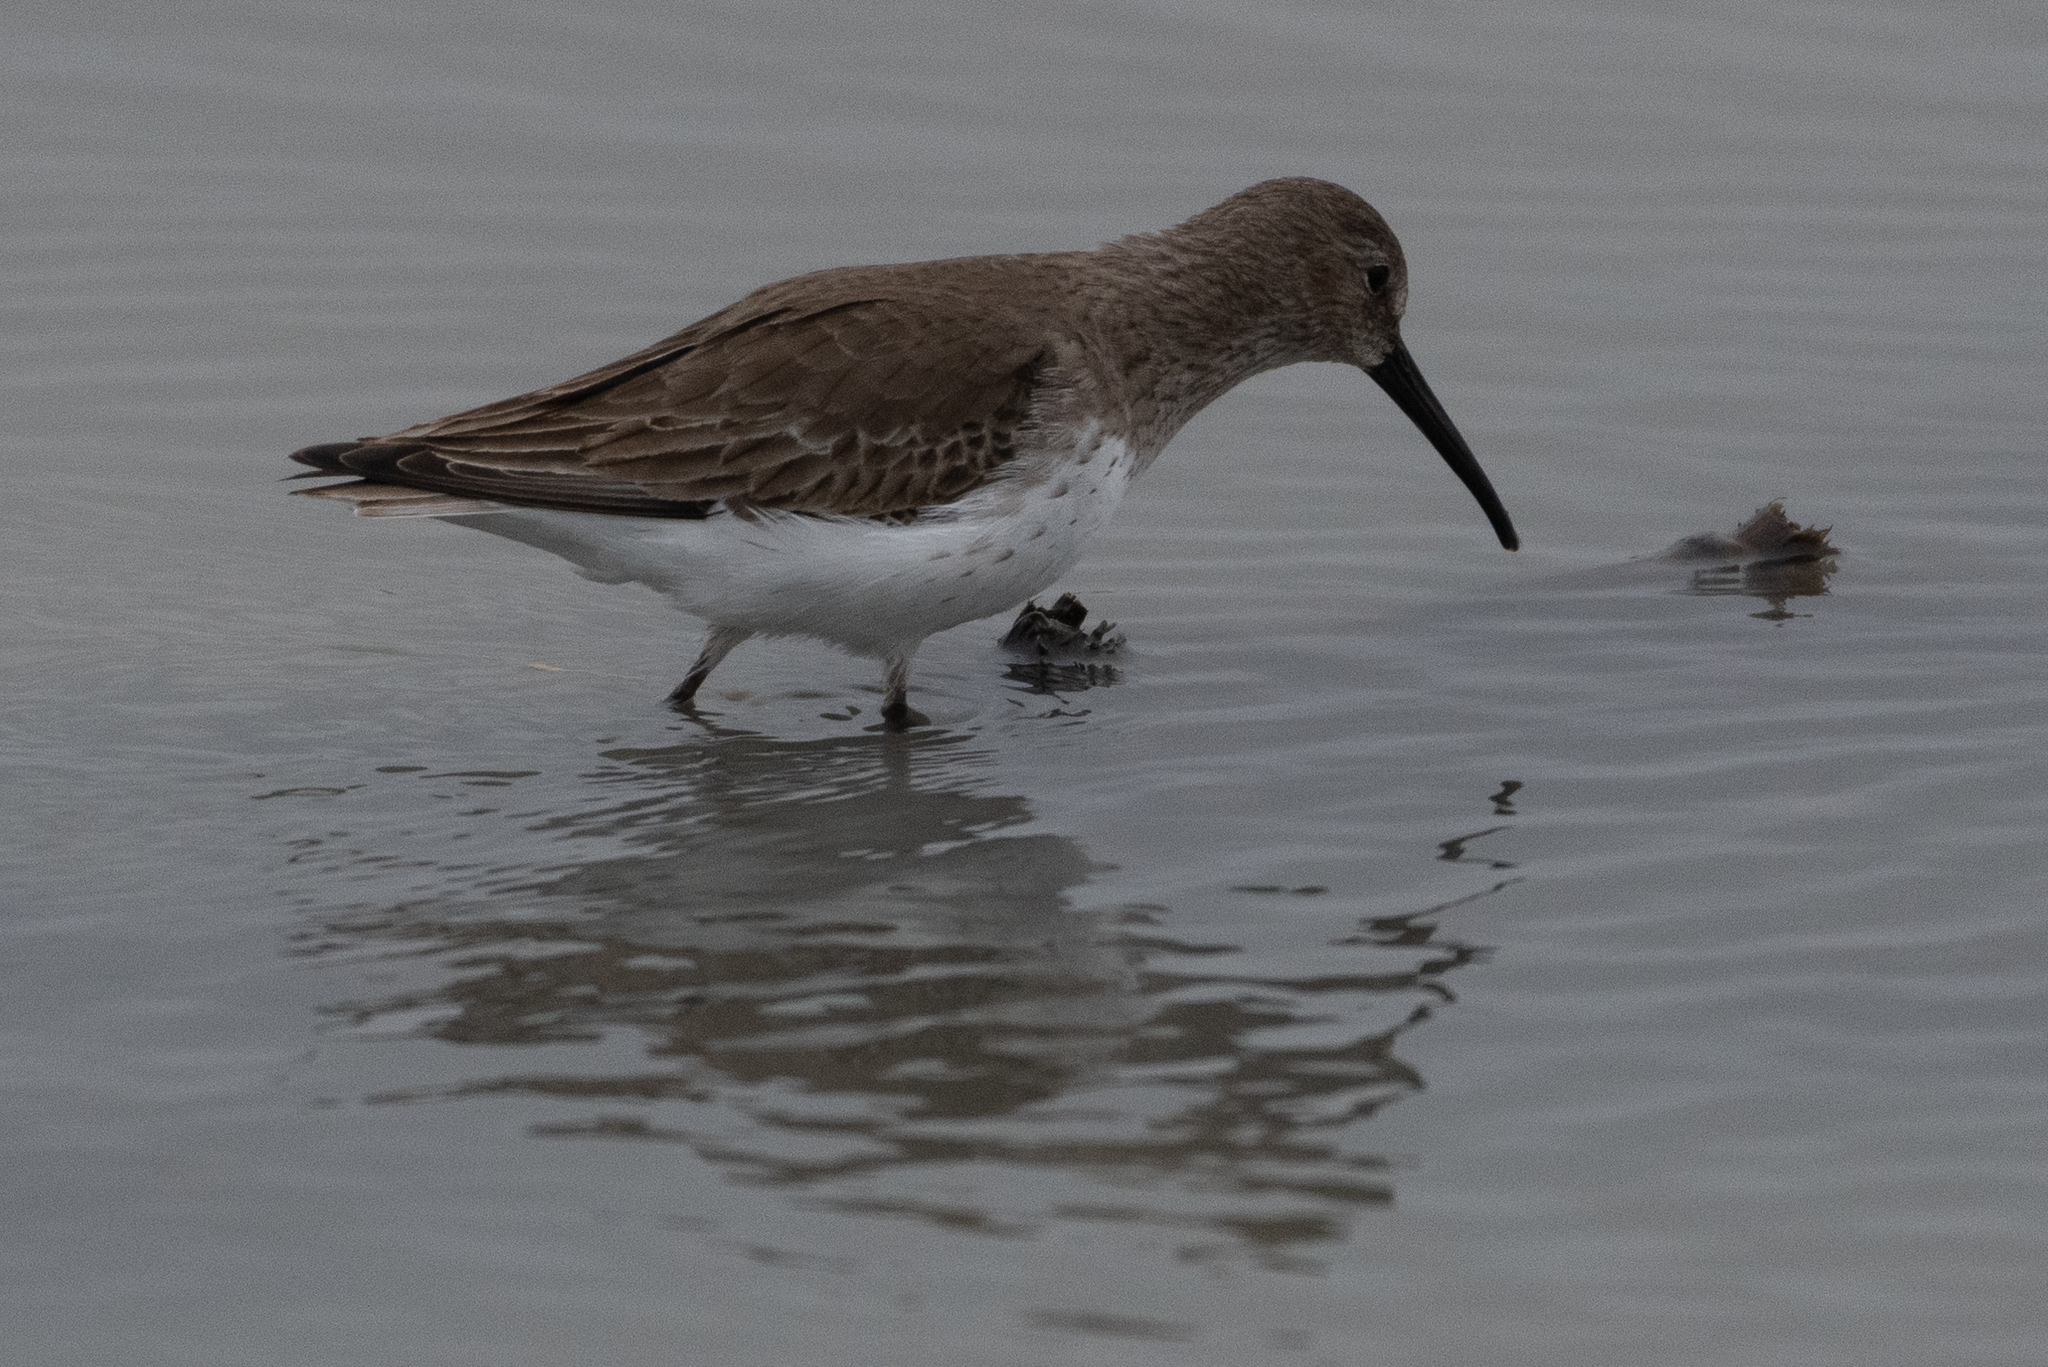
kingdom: Animalia
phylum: Chordata
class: Aves
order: Charadriiformes
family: Scolopacidae
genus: Calidris
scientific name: Calidris alpina
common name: Dunlin
